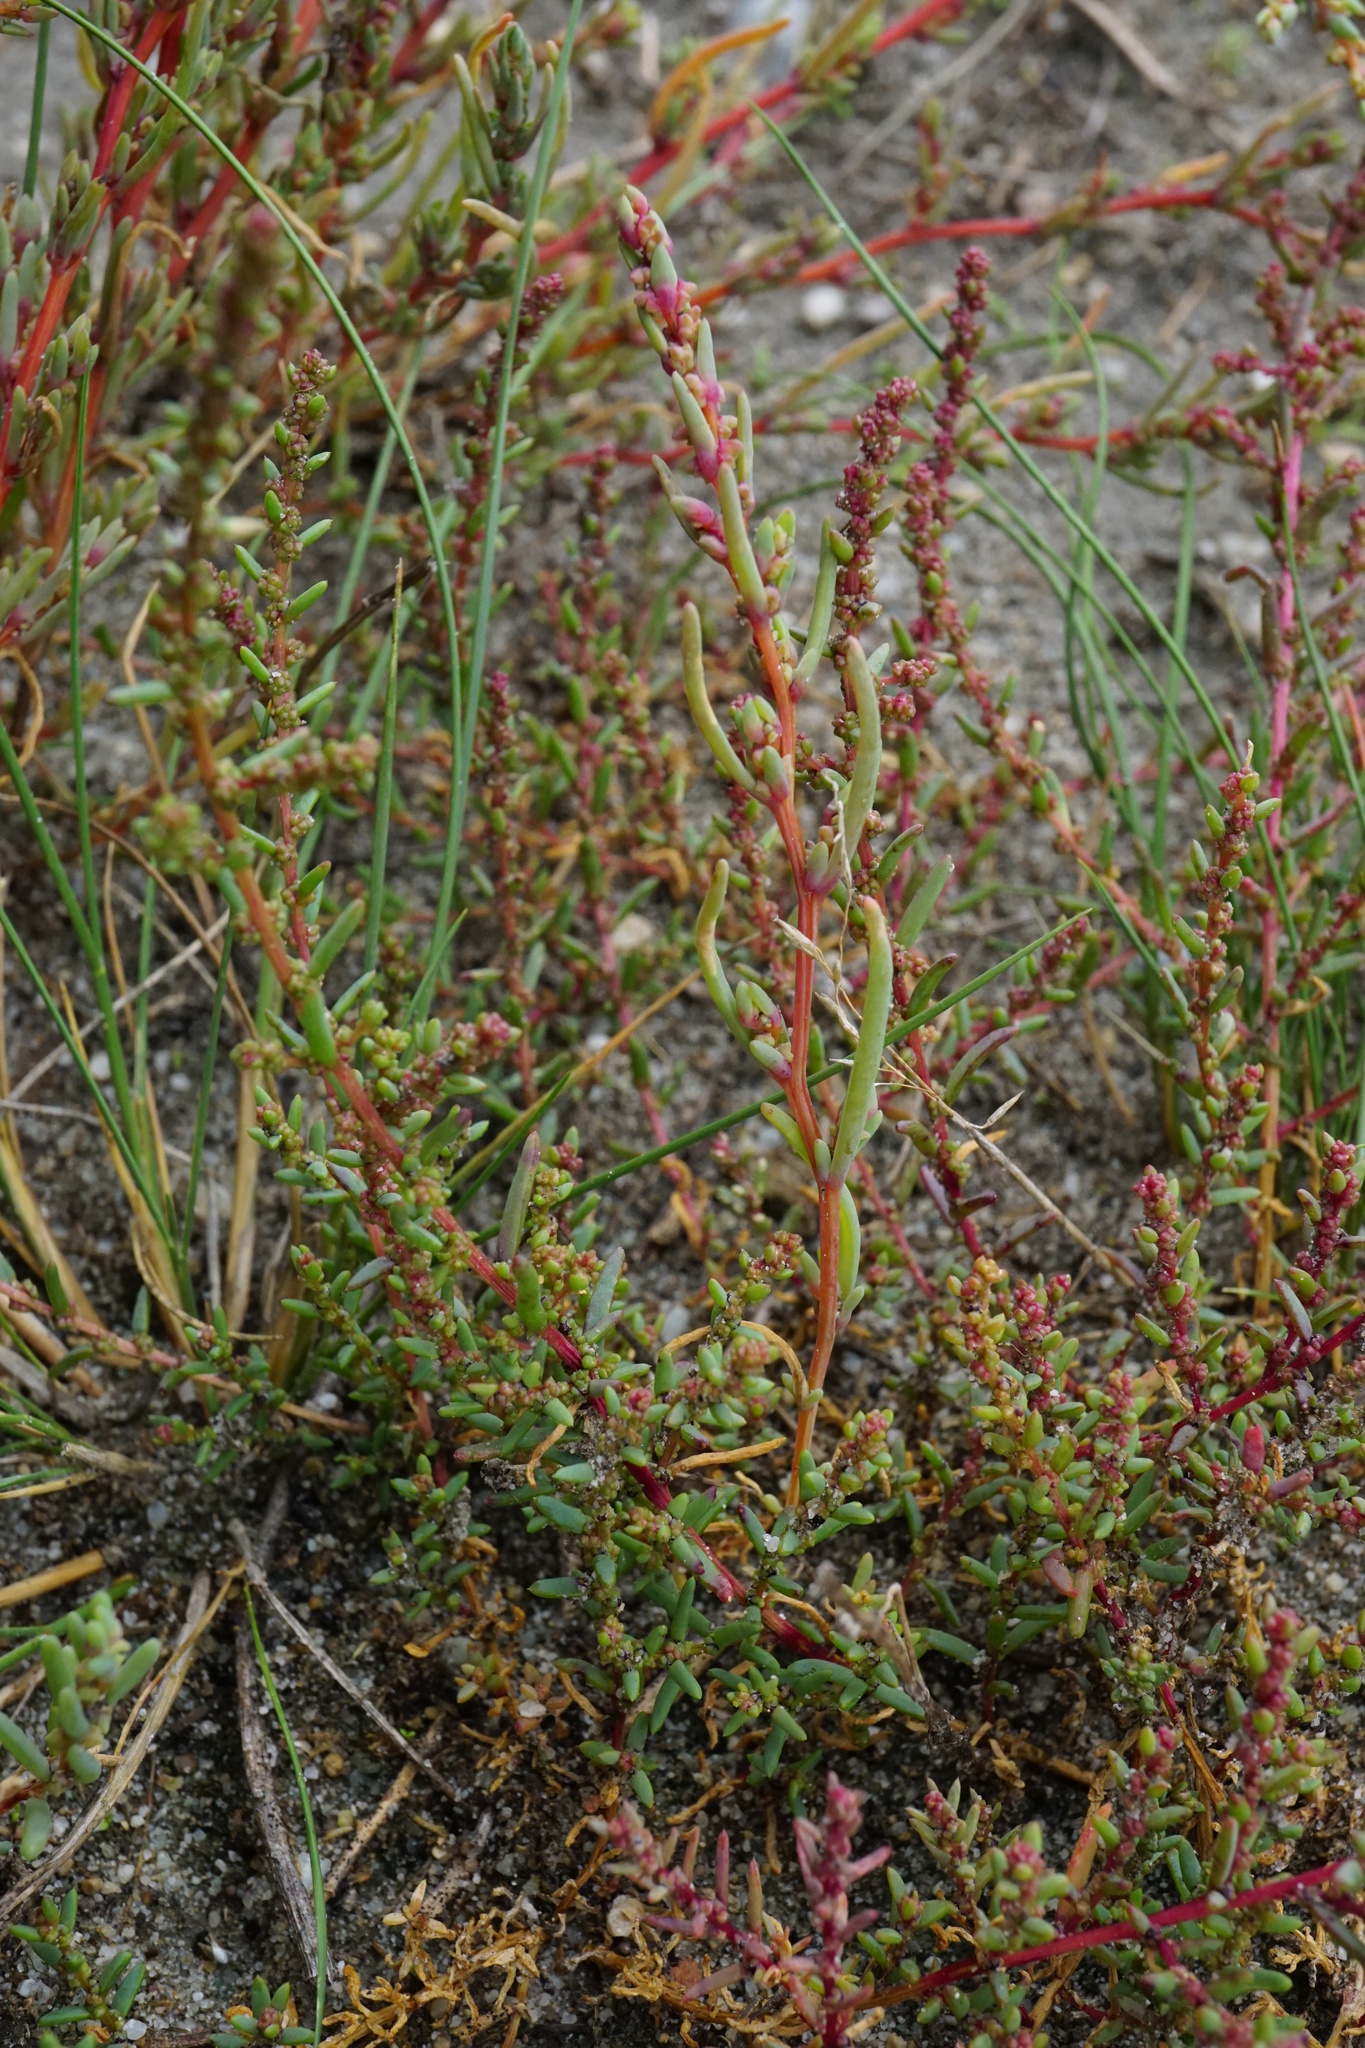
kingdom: Plantae
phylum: Tracheophyta
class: Magnoliopsida
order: Caryophyllales
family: Amaranthaceae
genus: Suaeda
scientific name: Suaeda prostrata
